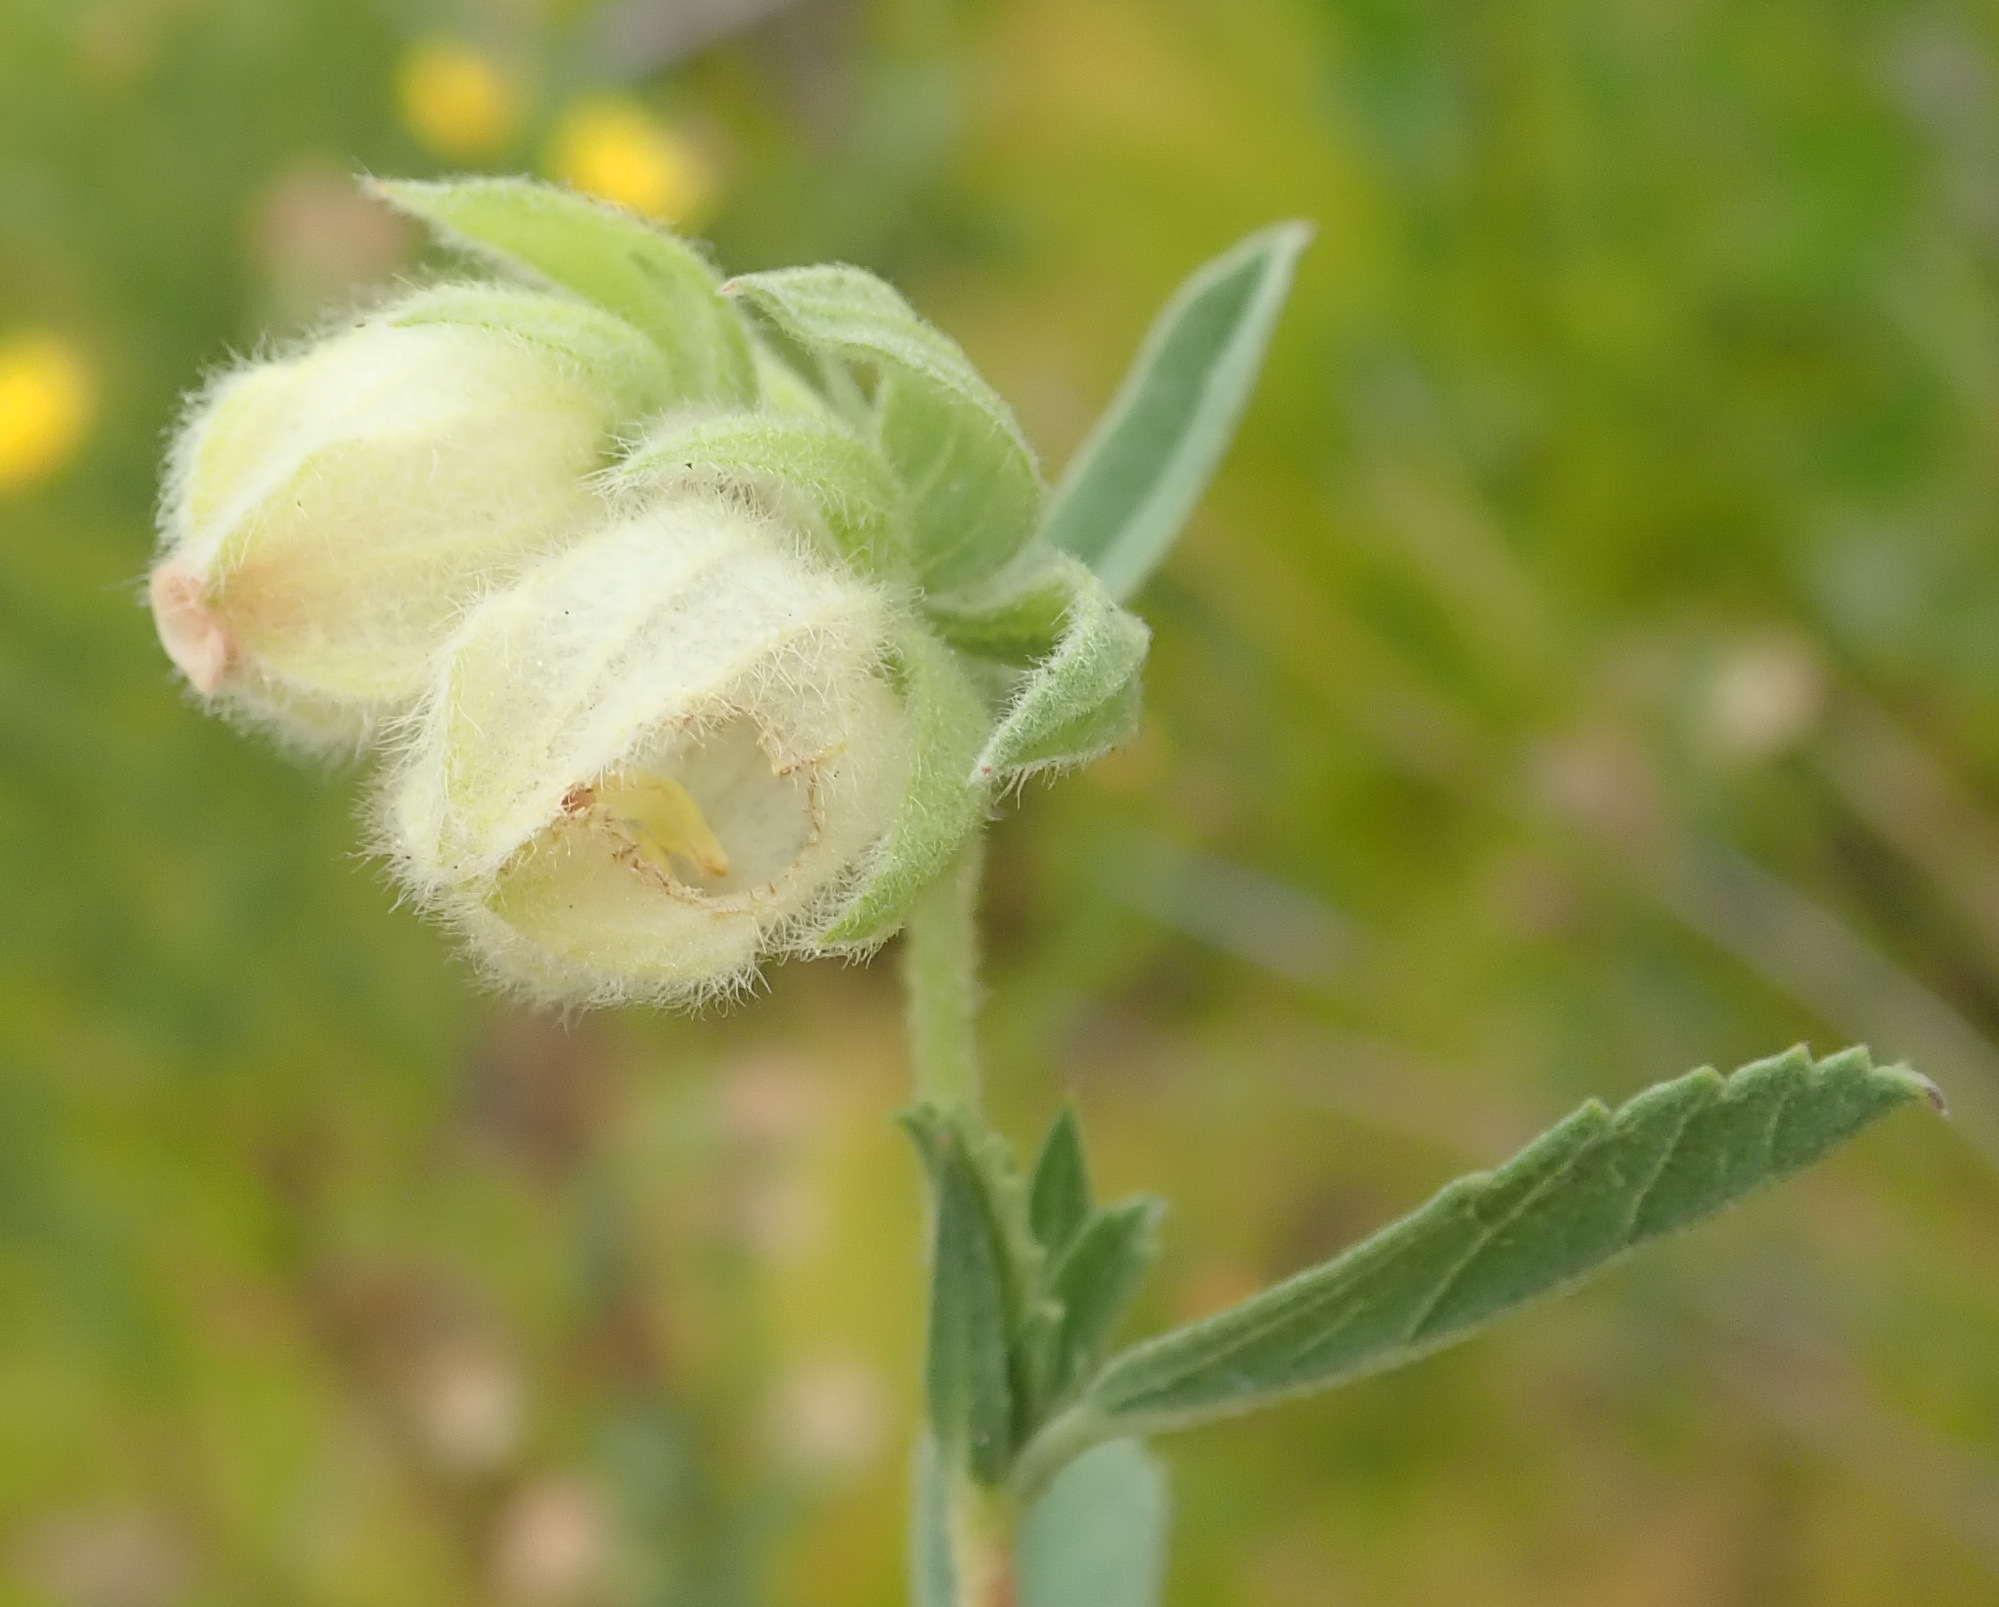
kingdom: Plantae
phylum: Tracheophyta
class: Magnoliopsida
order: Malvales
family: Malvaceae
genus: Hermannia
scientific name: Hermannia hyssopifolia
